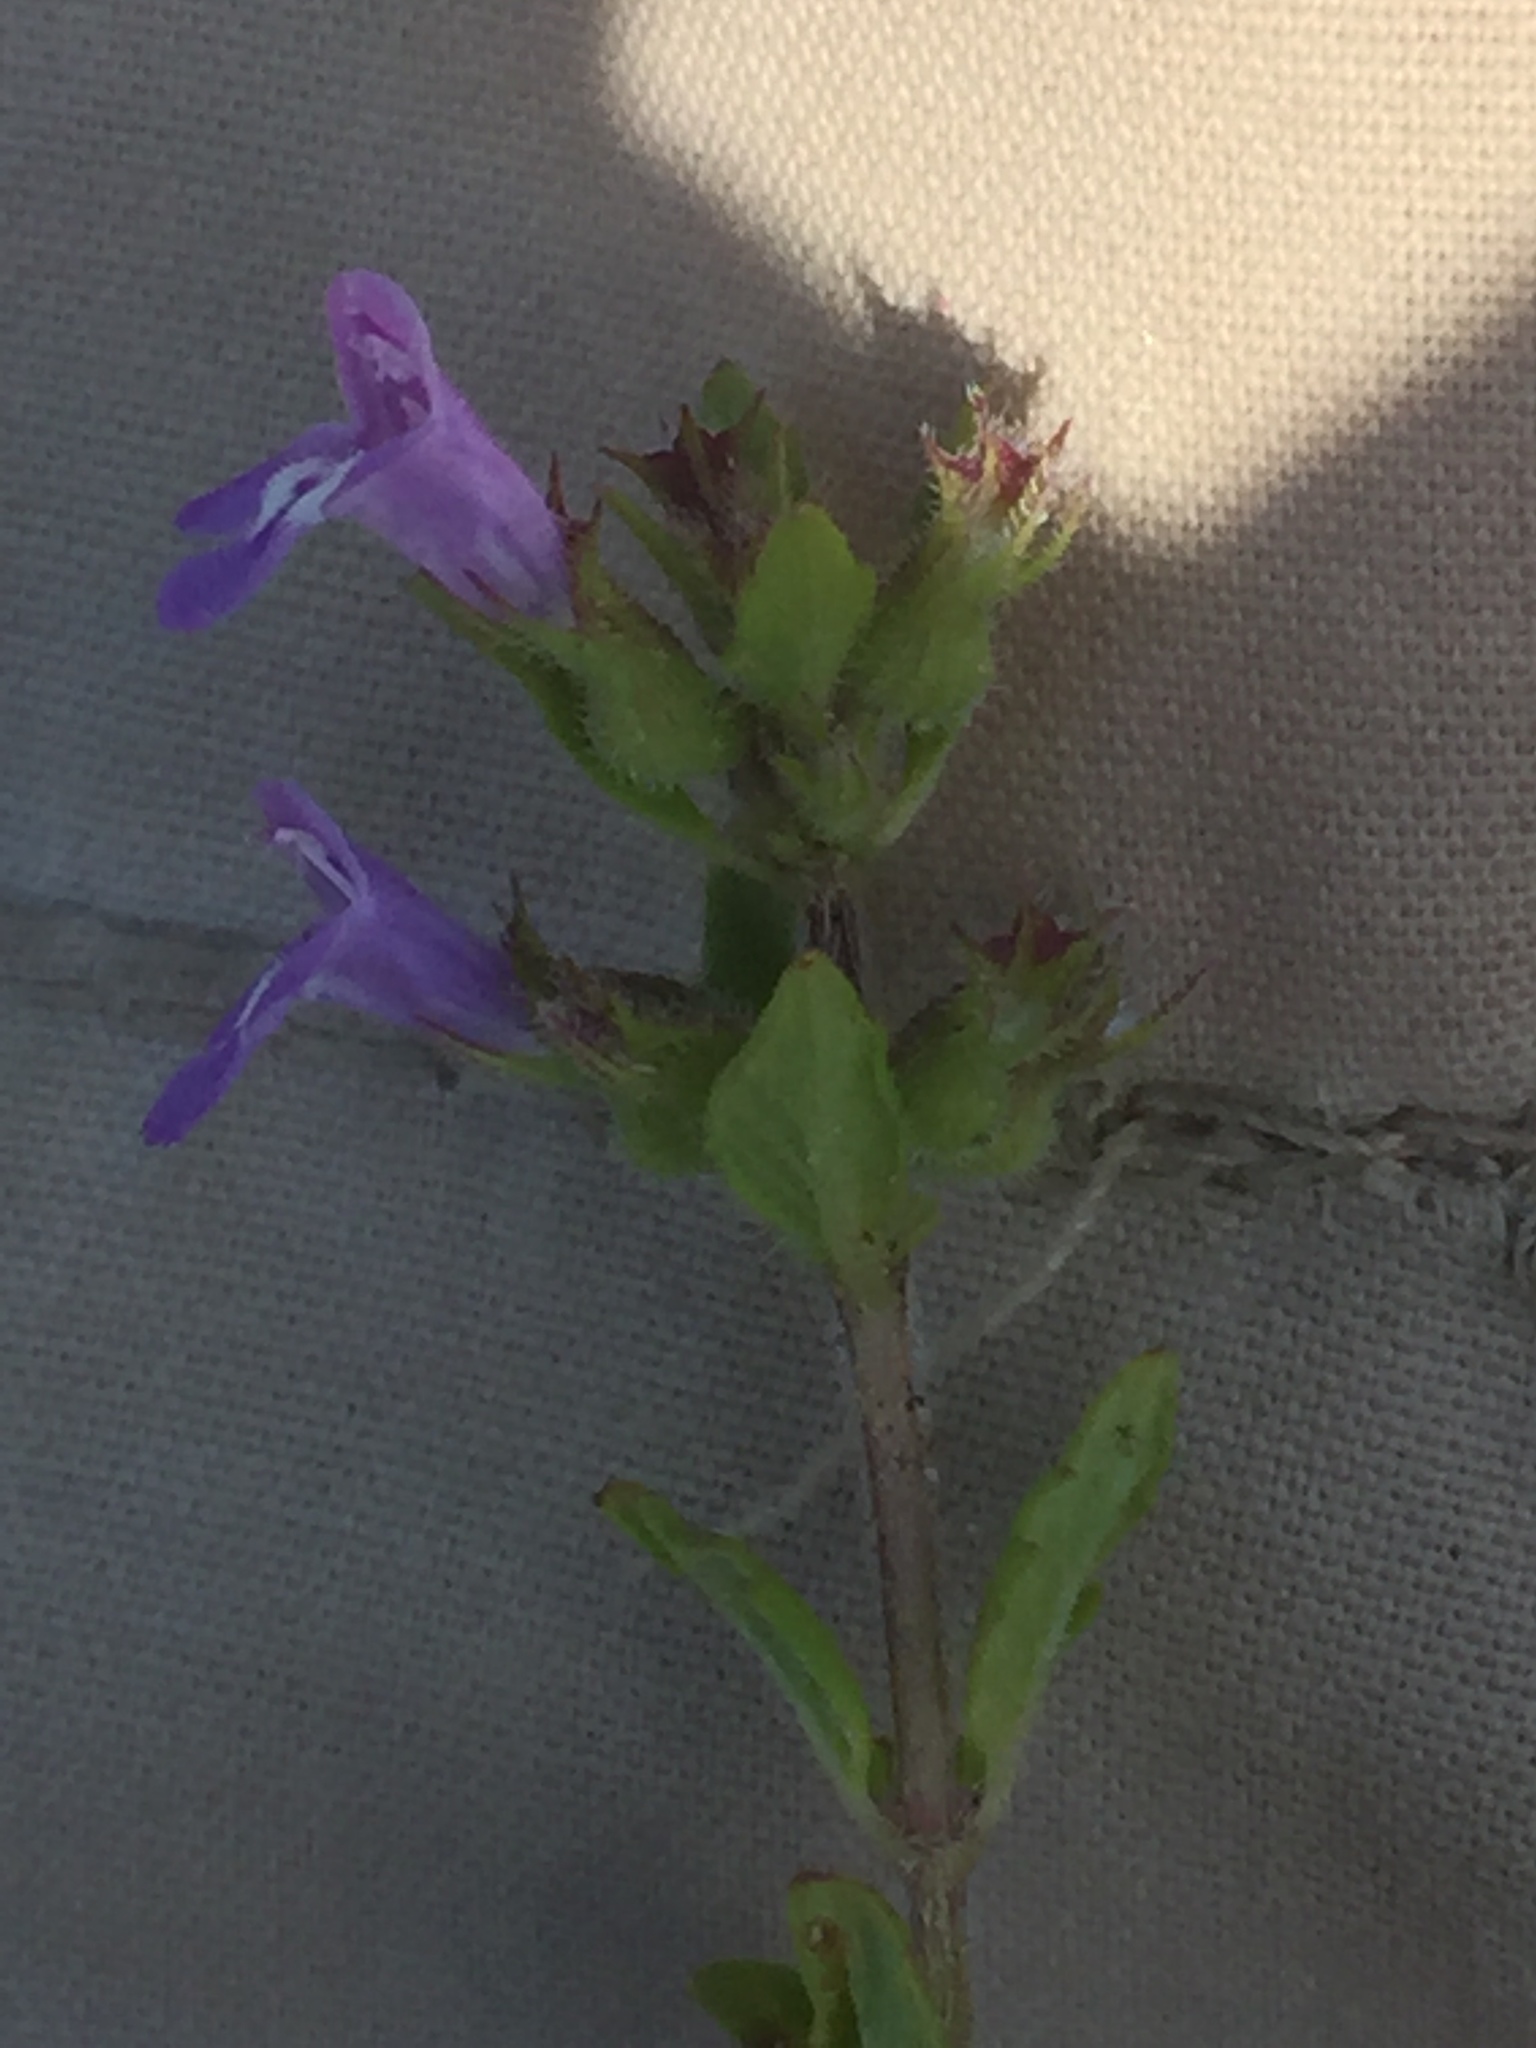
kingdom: Plantae
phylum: Tracheophyta
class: Magnoliopsida
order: Lamiales
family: Lamiaceae
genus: Clinopodium
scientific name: Clinopodium acinos
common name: Basil thyme
